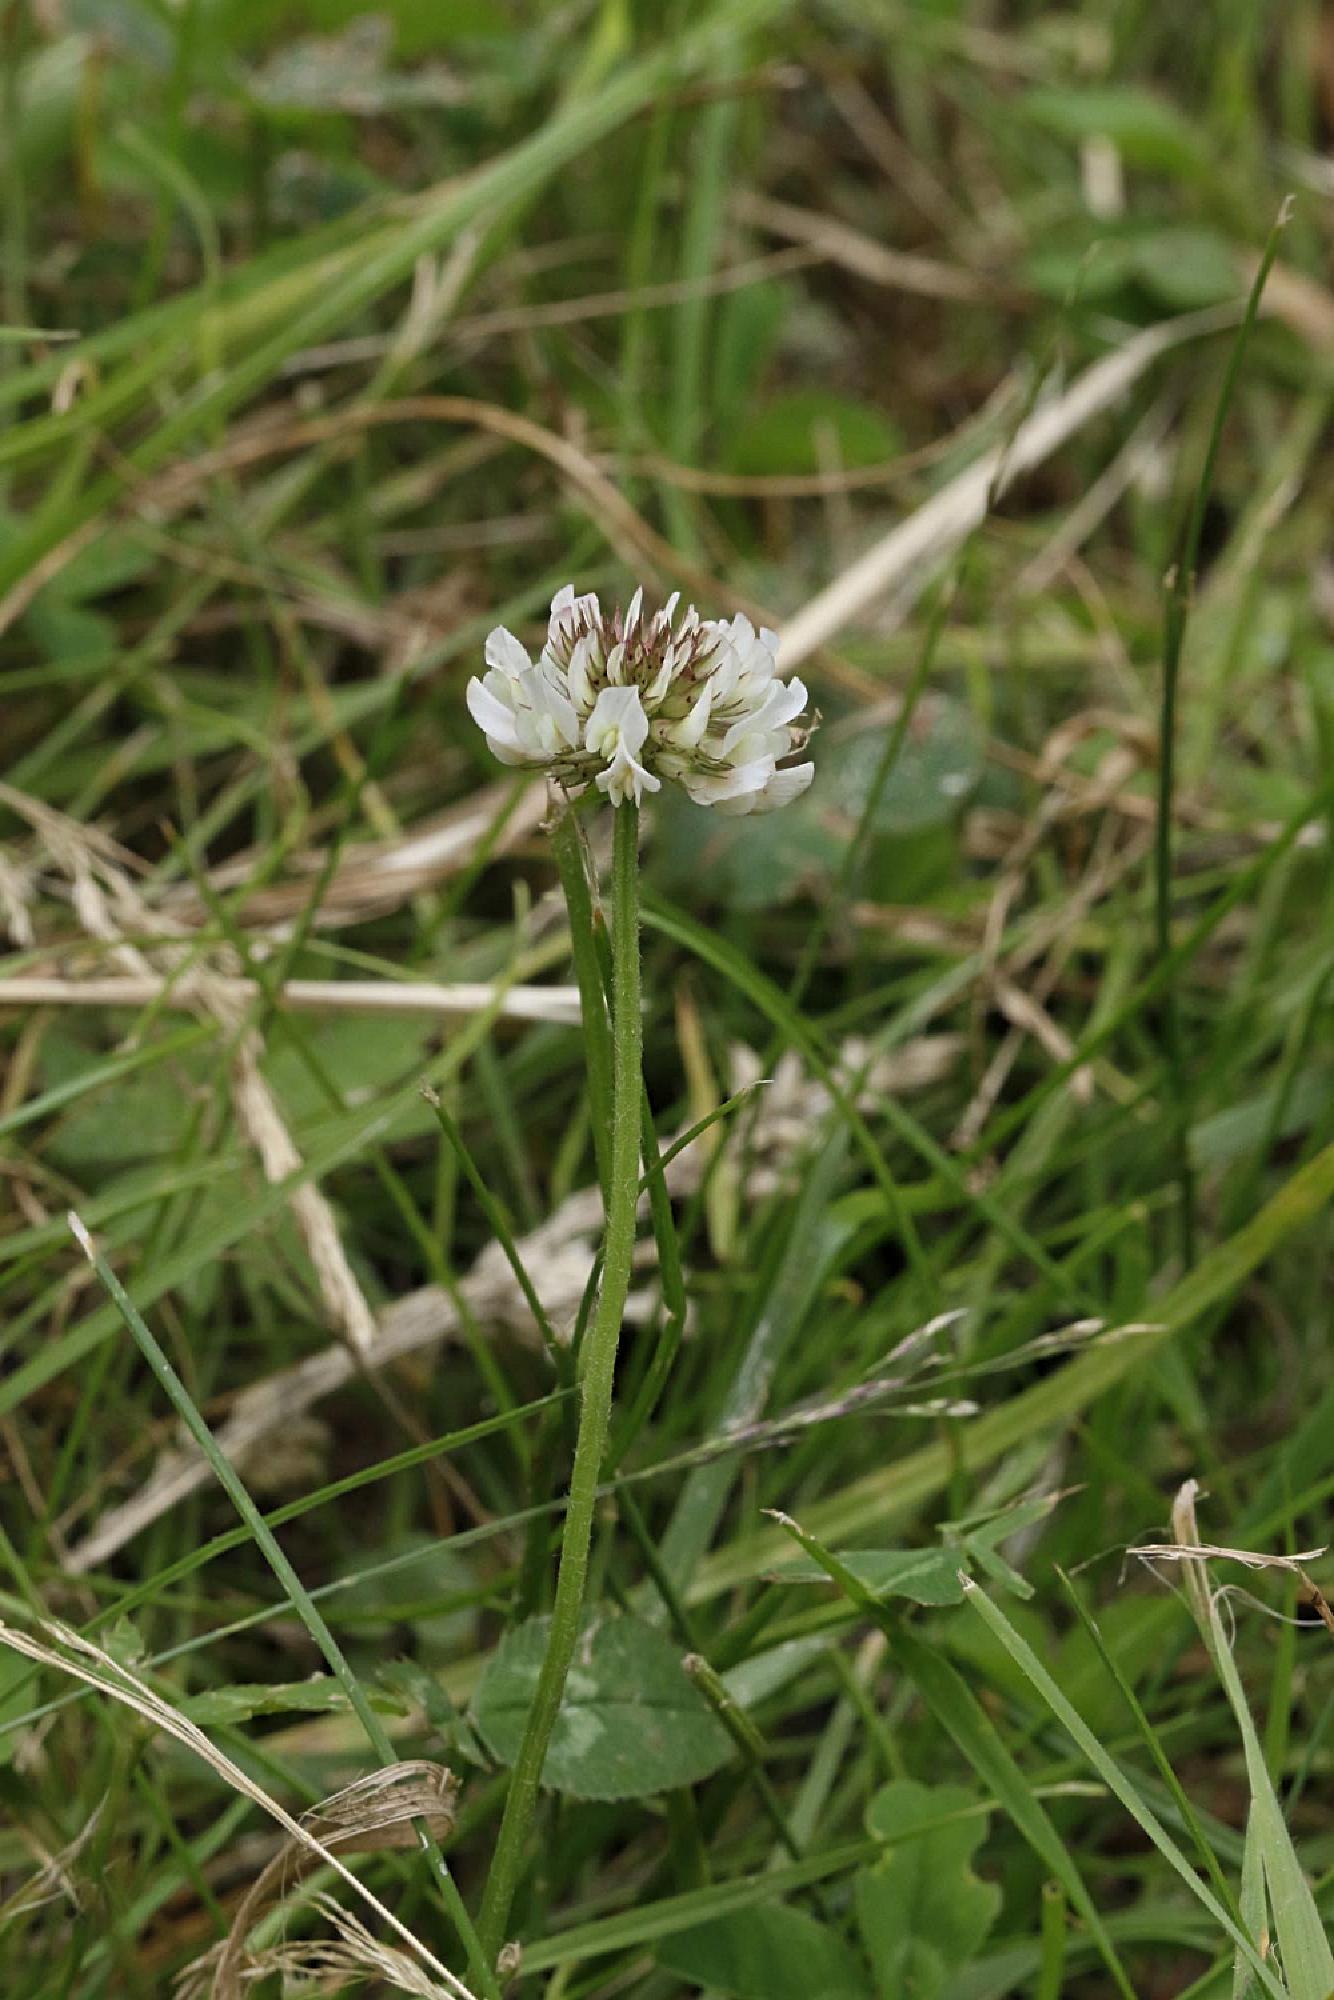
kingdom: Plantae
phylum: Tracheophyta
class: Magnoliopsida
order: Fabales
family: Fabaceae
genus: Trifolium
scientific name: Trifolium repens
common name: White clover
